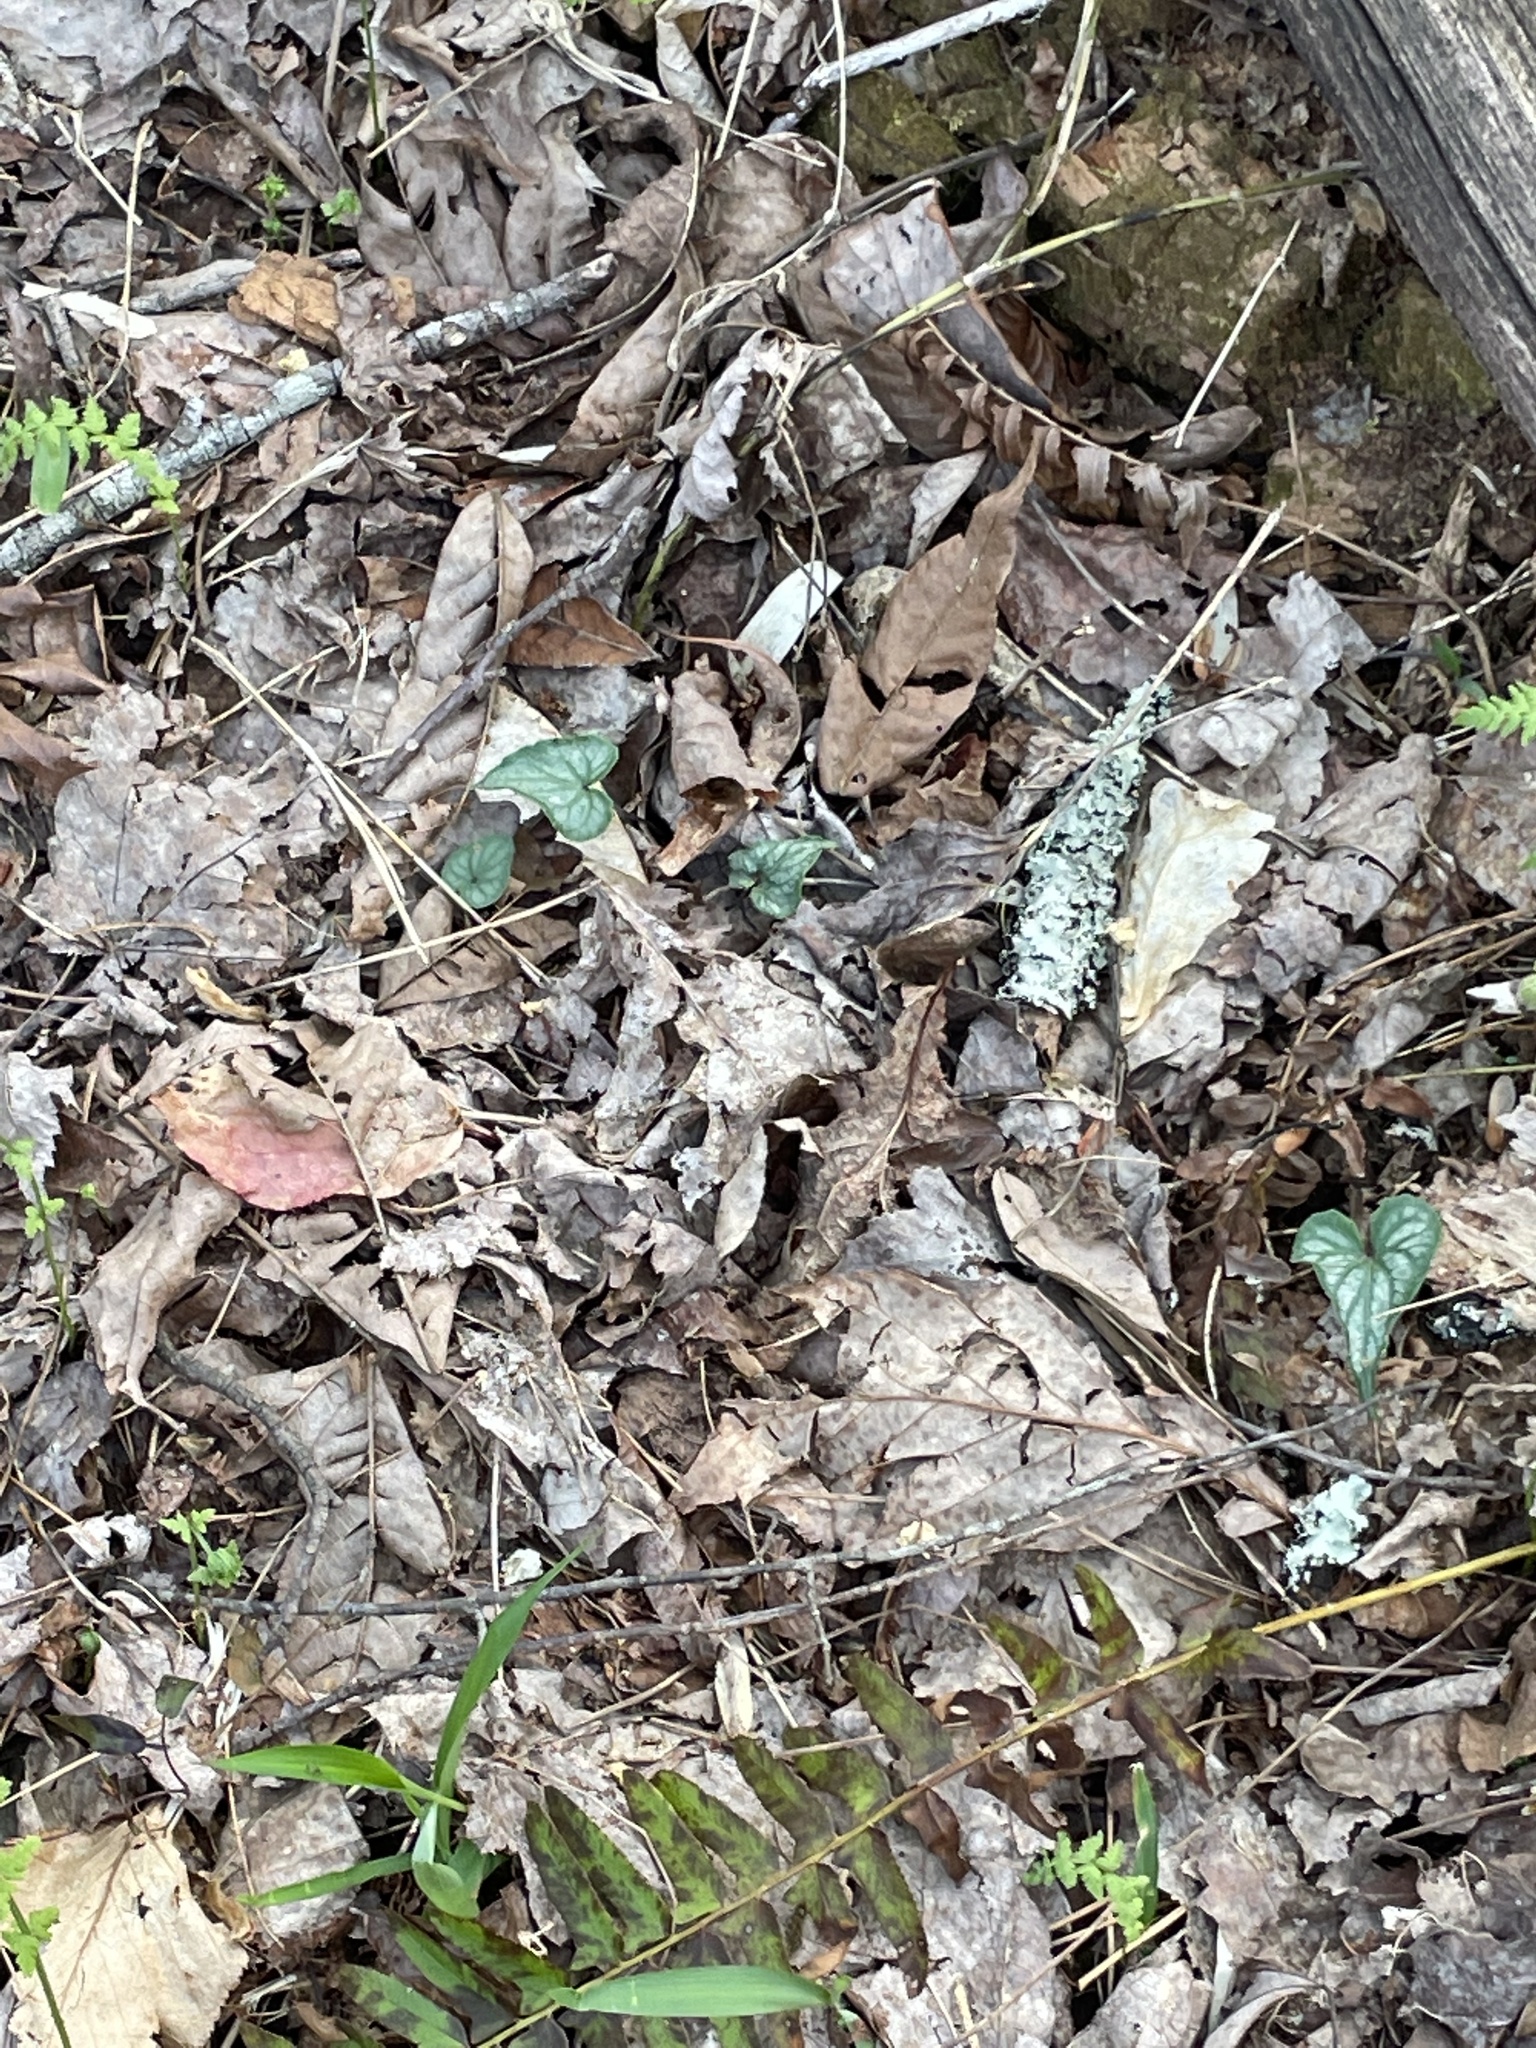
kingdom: Plantae
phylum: Tracheophyta
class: Magnoliopsida
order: Malpighiales
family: Violaceae
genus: Viola
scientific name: Viola hastata
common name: Spear-leaf violet
